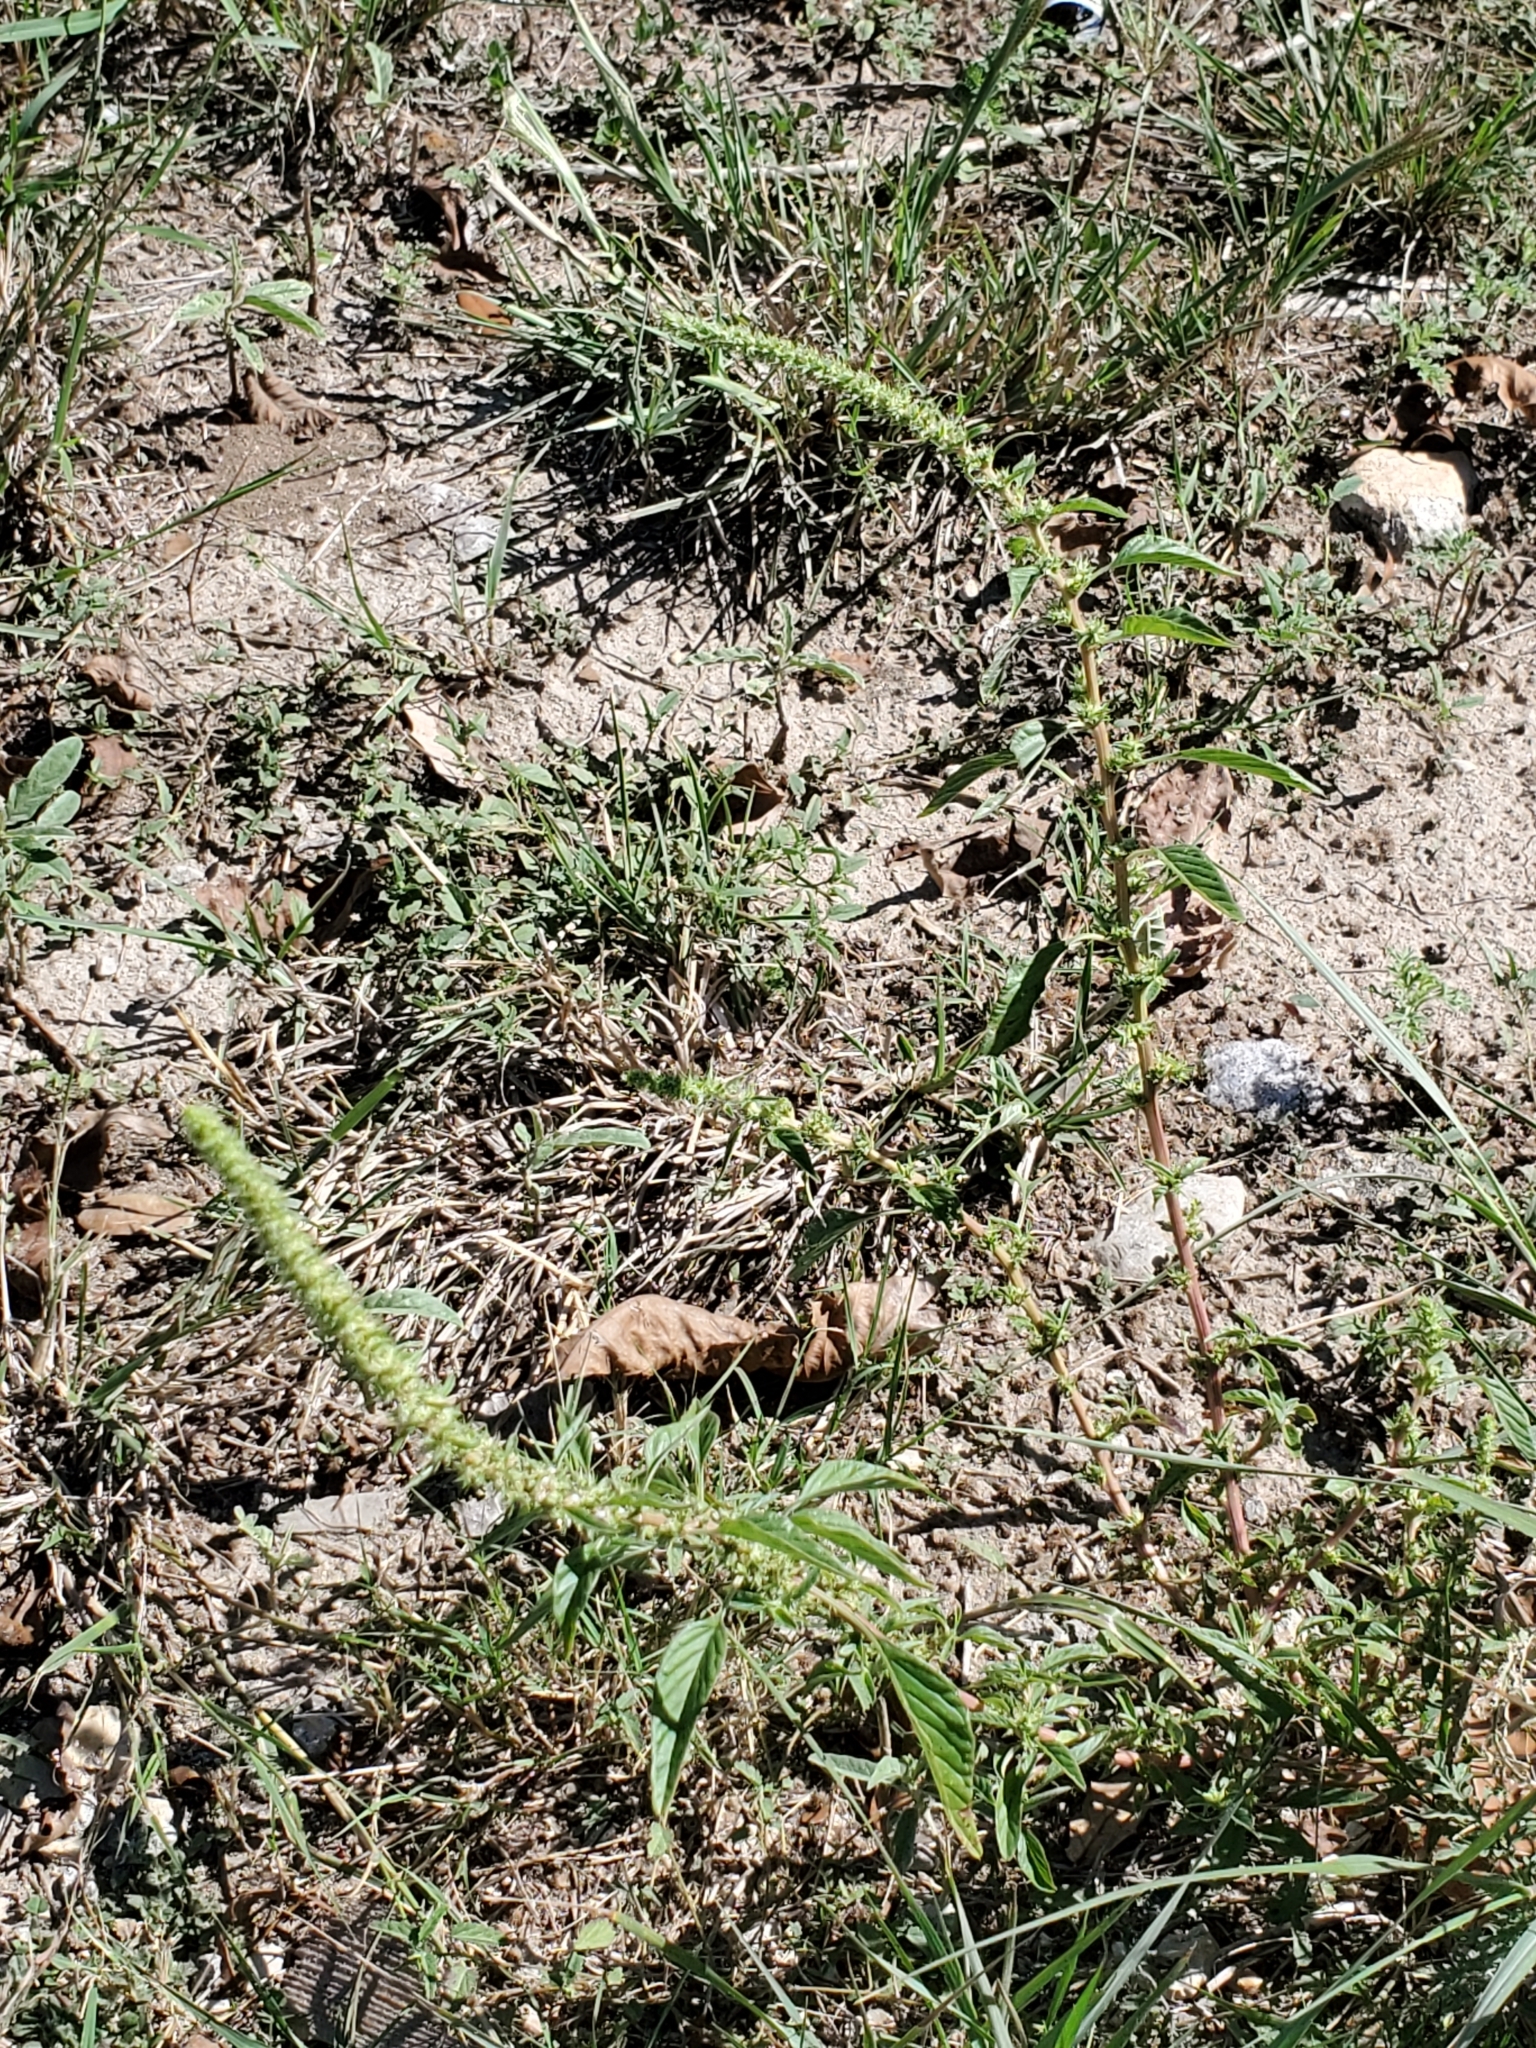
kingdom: Plantae
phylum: Tracheophyta
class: Magnoliopsida
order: Caryophyllales
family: Amaranthaceae
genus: Amaranthus
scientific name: Amaranthus palmeri
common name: Dioecious amaranth
